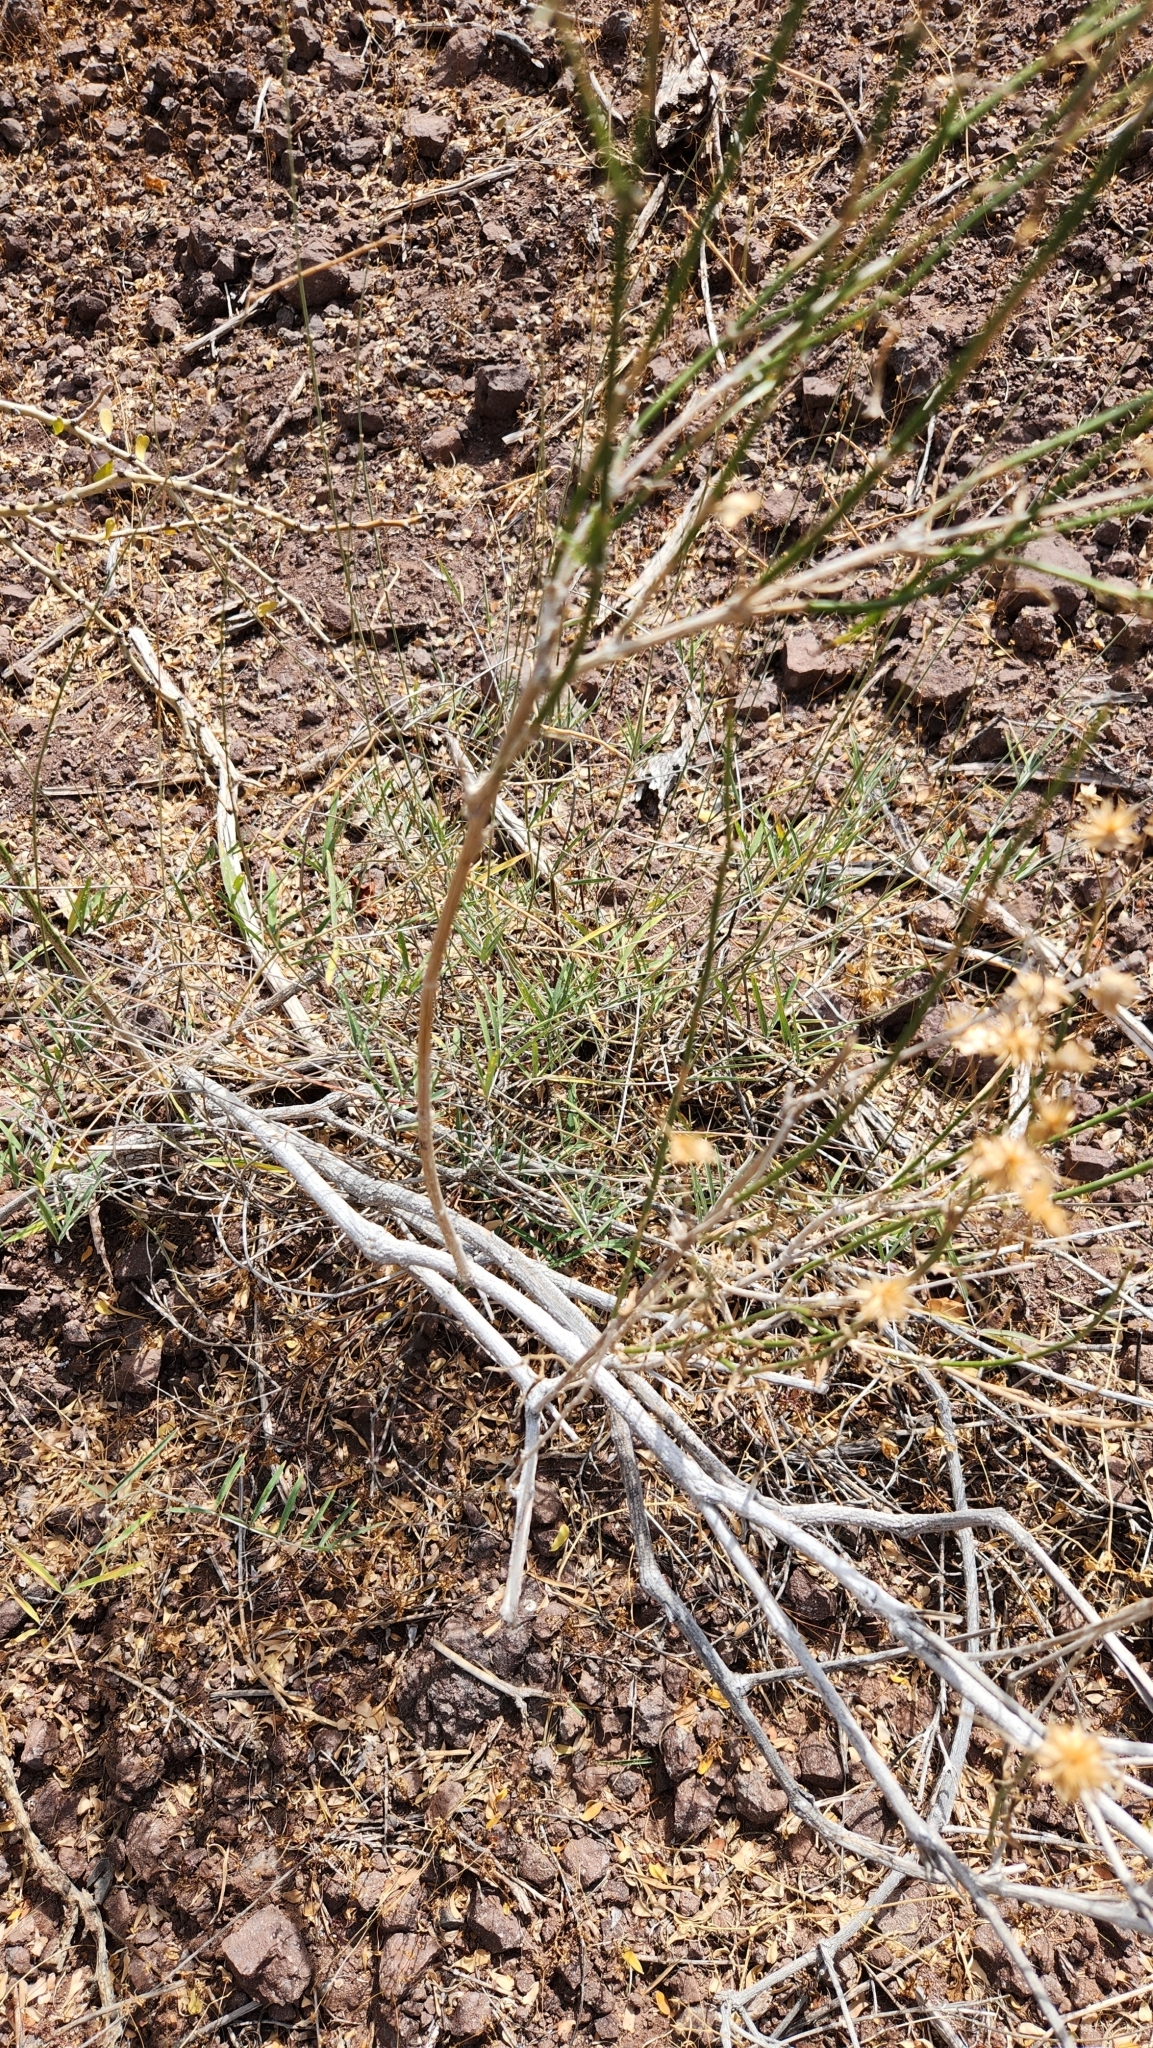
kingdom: Plantae
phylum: Tracheophyta
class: Magnoliopsida
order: Asterales
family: Asteraceae
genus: Bebbia
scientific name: Bebbia juncea
